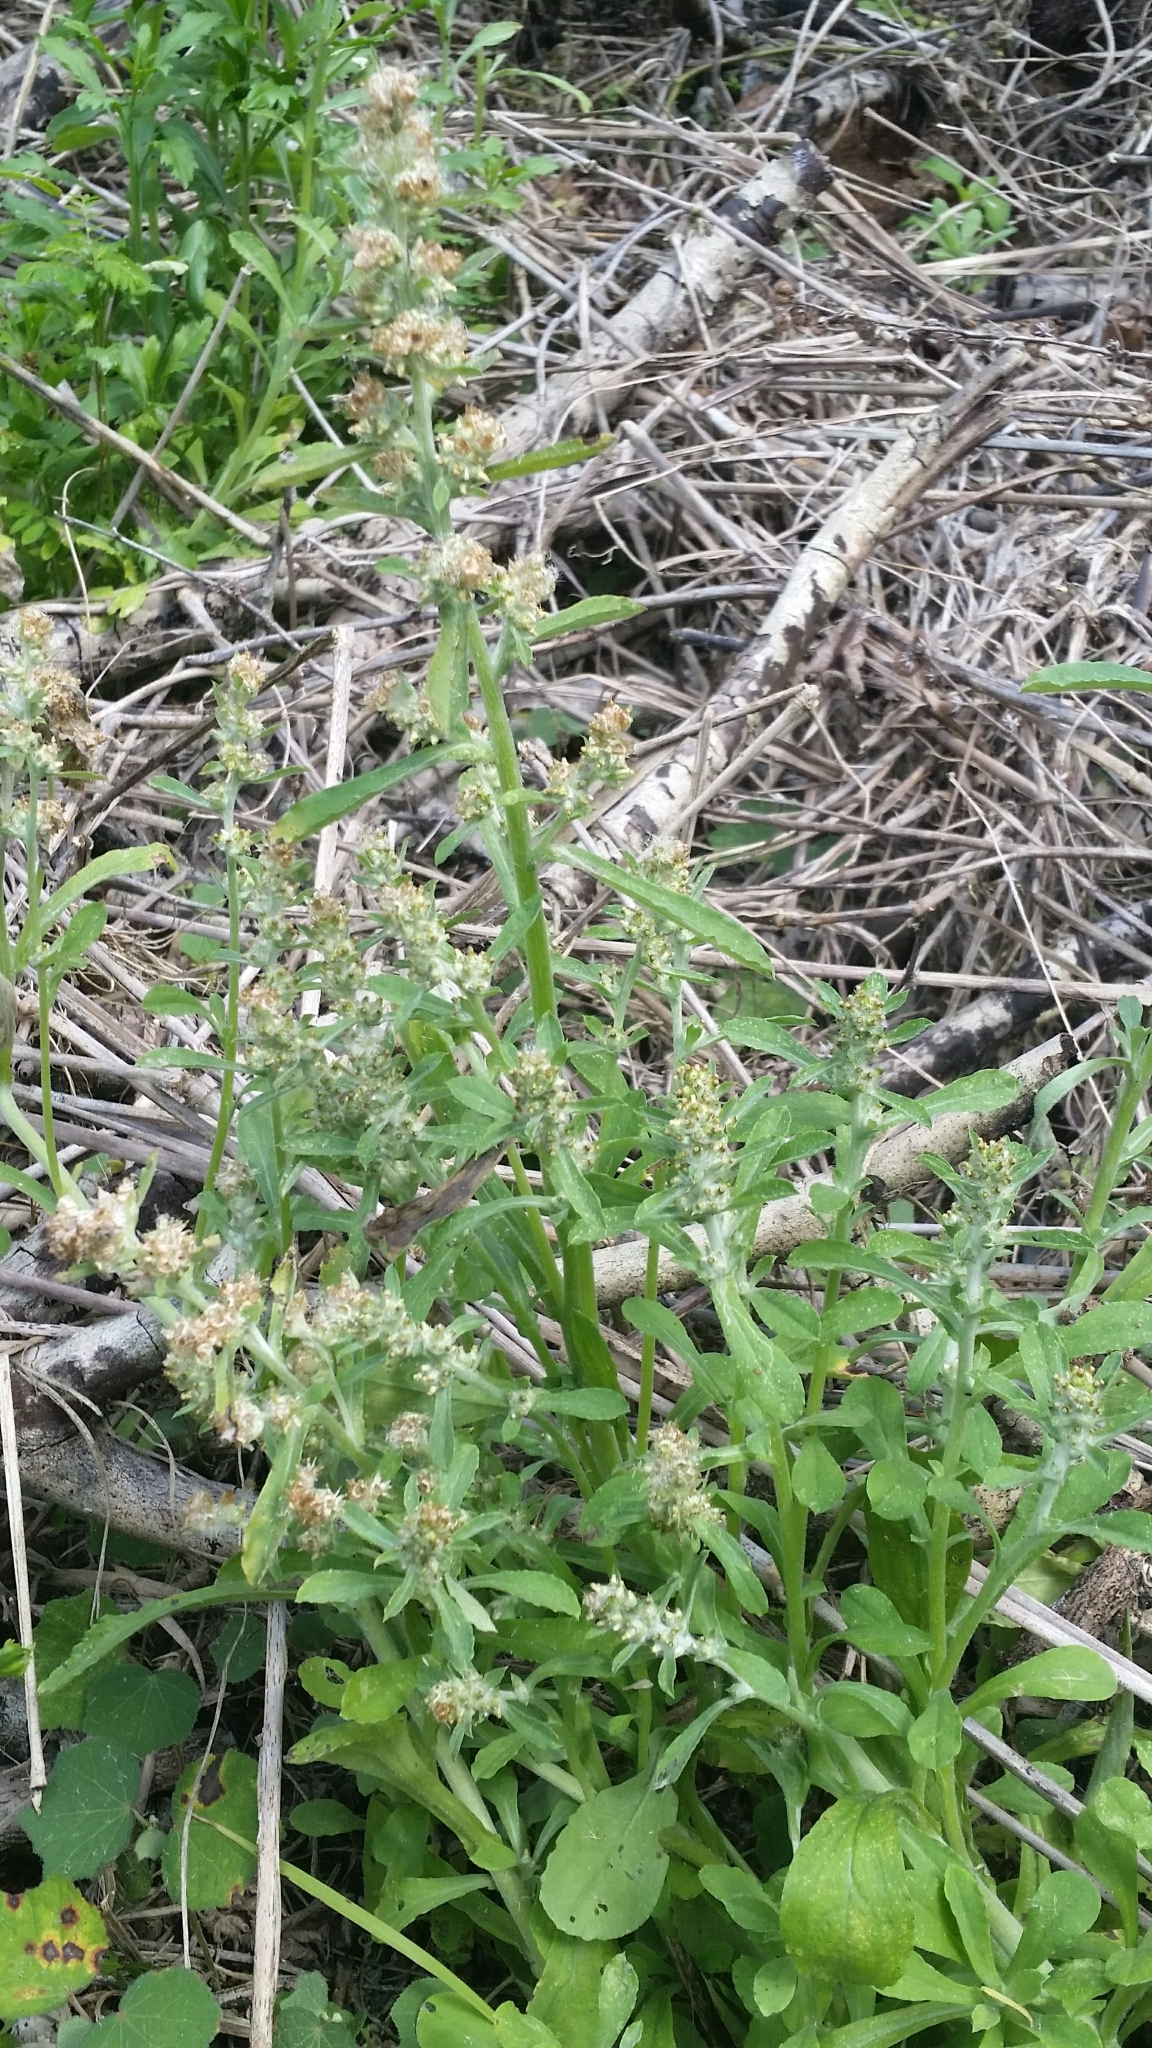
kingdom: Plantae
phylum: Tracheophyta
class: Magnoliopsida
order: Asterales
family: Asteraceae
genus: Gamochaeta
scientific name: Gamochaeta pensylvanica
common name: Pennsylvania everlasting
